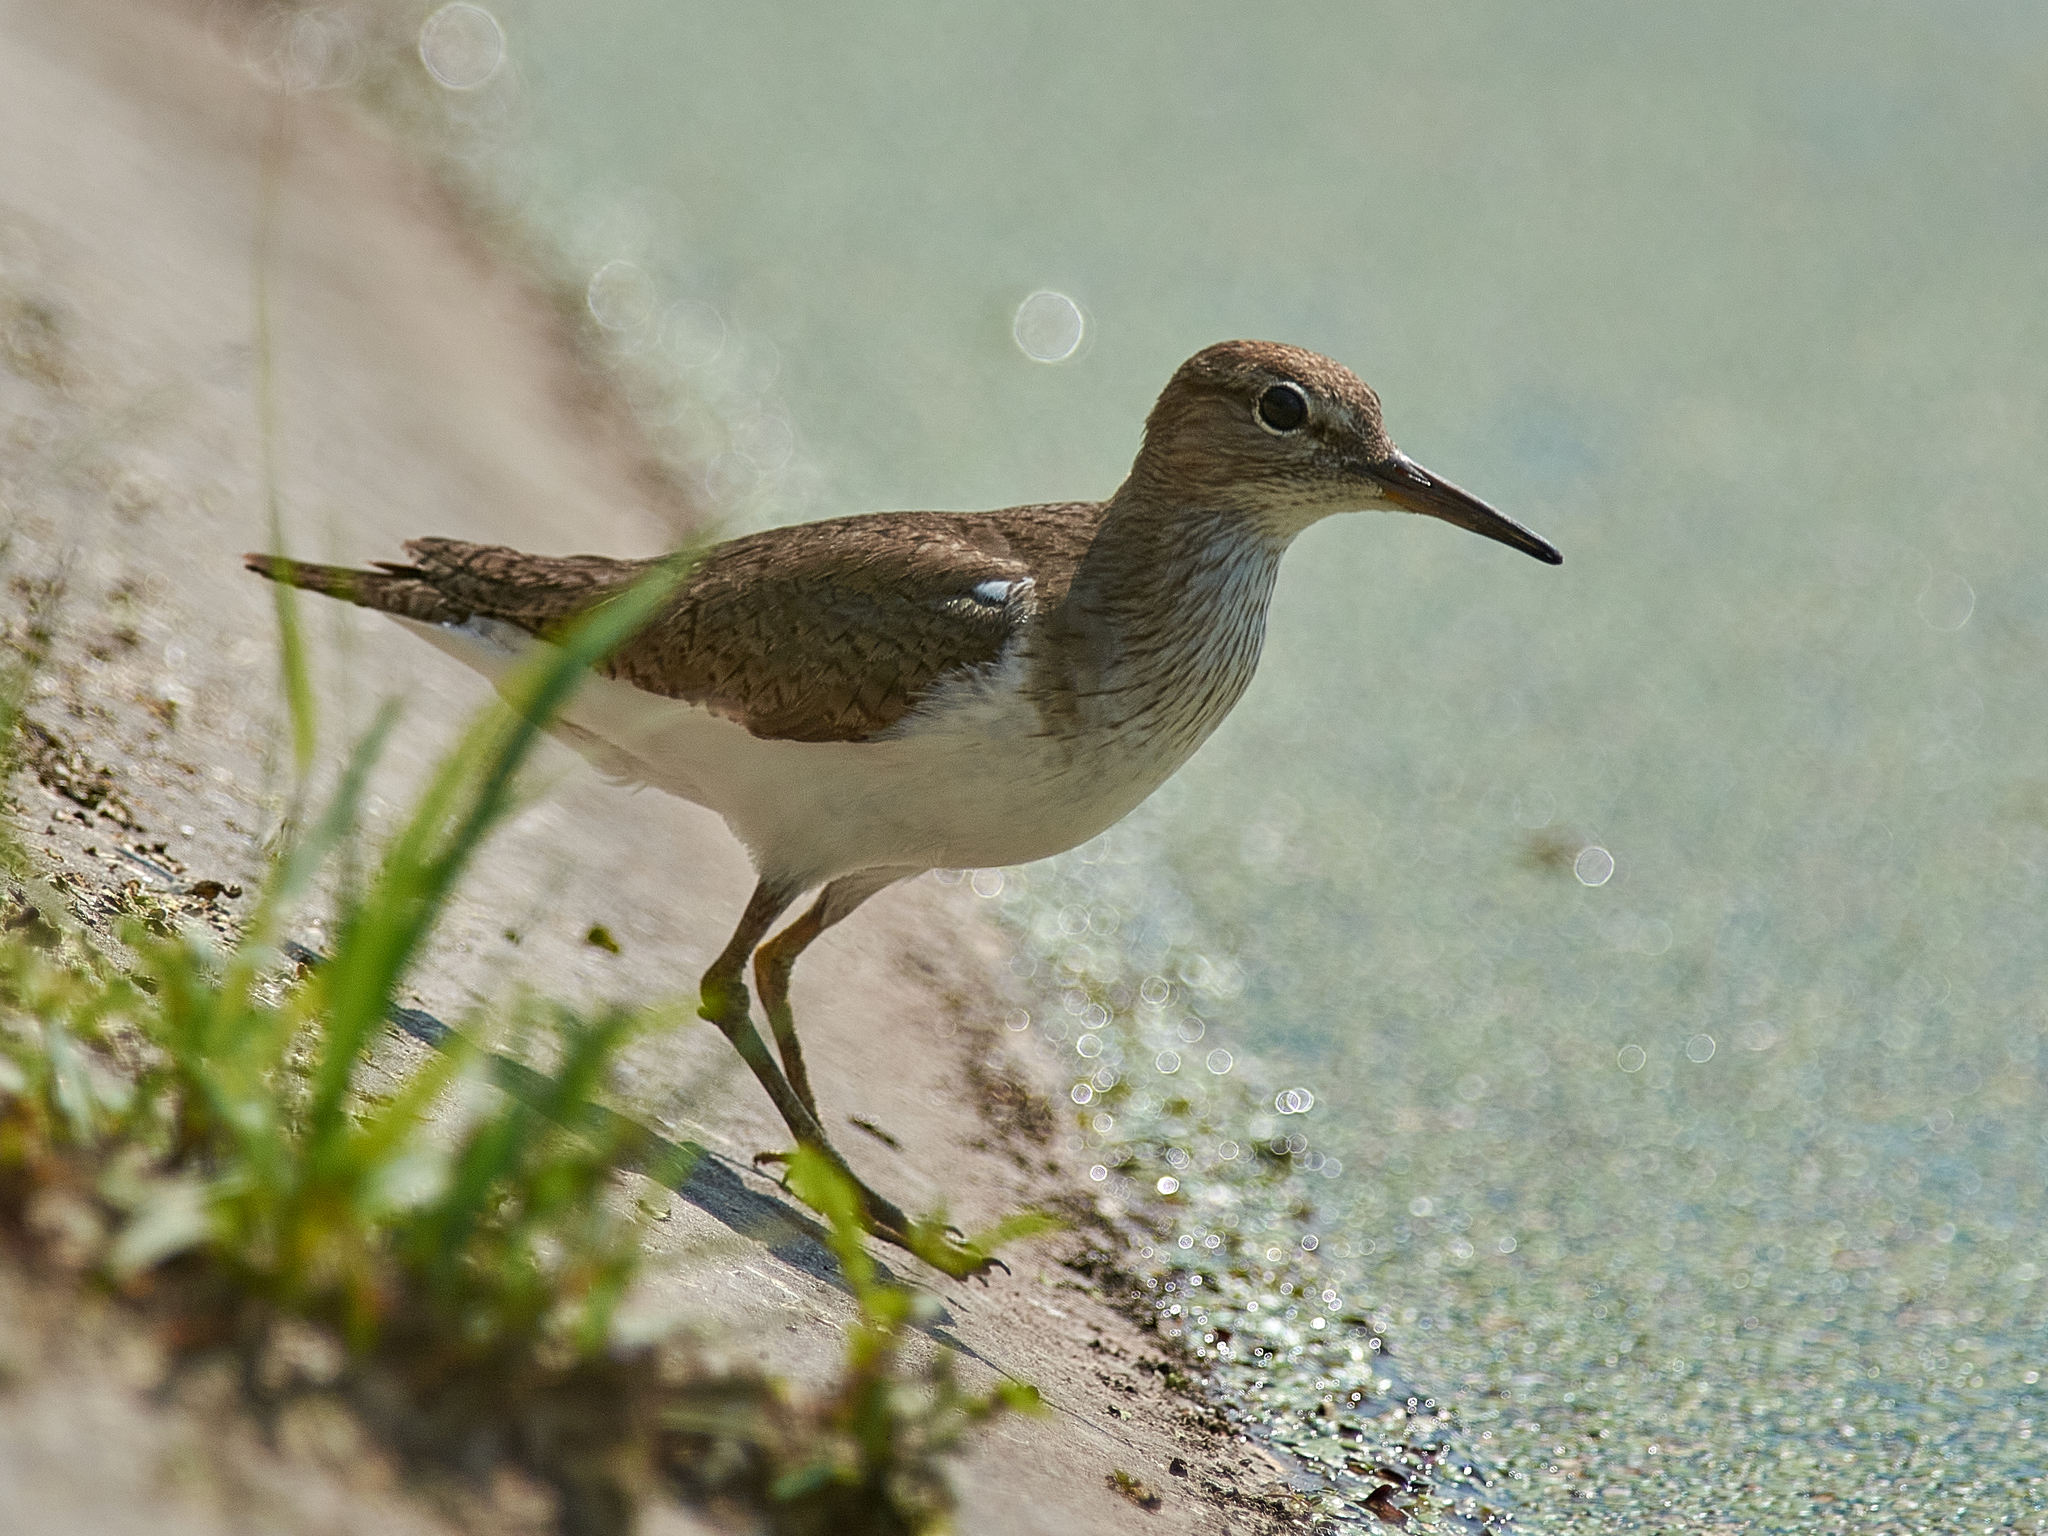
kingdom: Animalia
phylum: Chordata
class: Aves
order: Charadriiformes
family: Scolopacidae
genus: Actitis
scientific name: Actitis hypoleucos
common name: Common sandpiper
